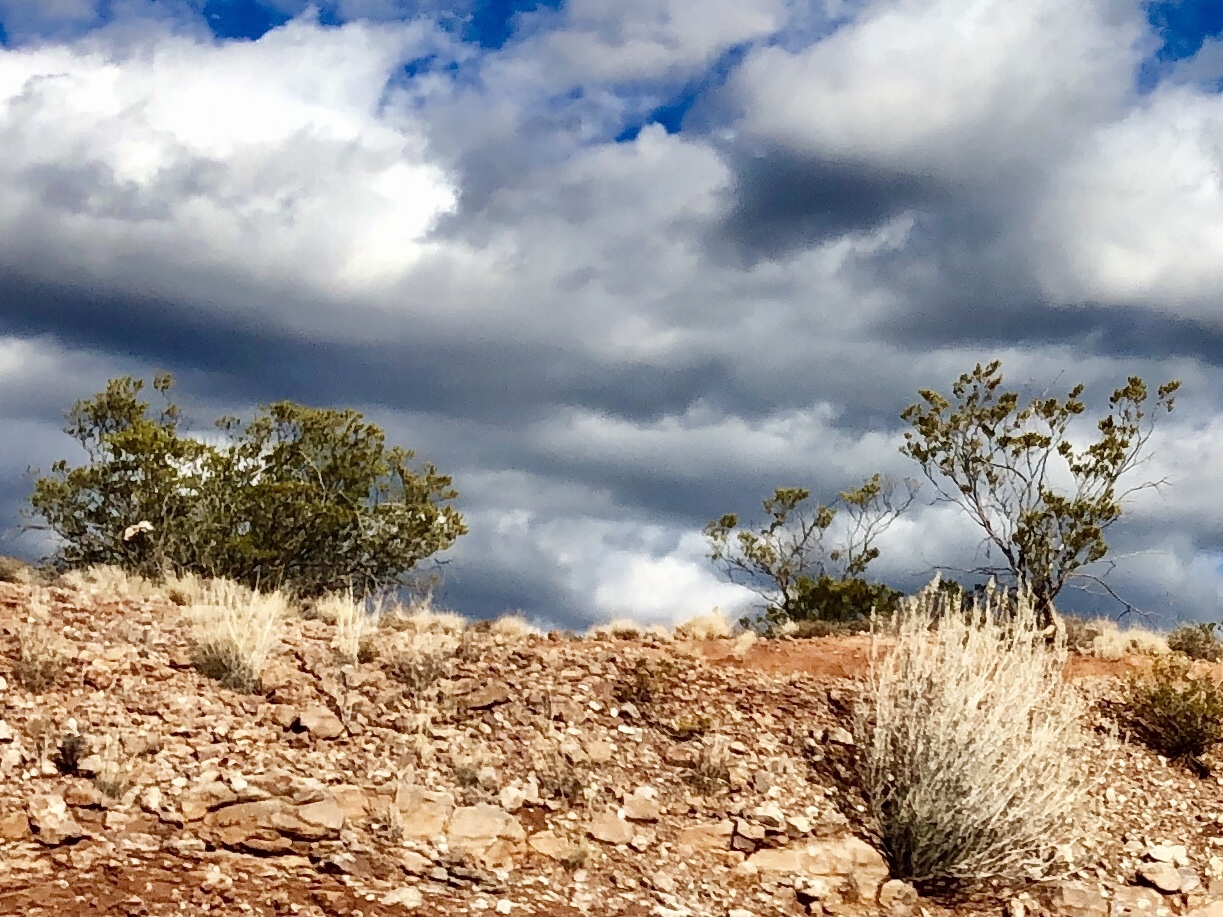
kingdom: Plantae
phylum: Tracheophyta
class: Magnoliopsida
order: Zygophyllales
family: Zygophyllaceae
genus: Larrea
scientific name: Larrea tridentata
